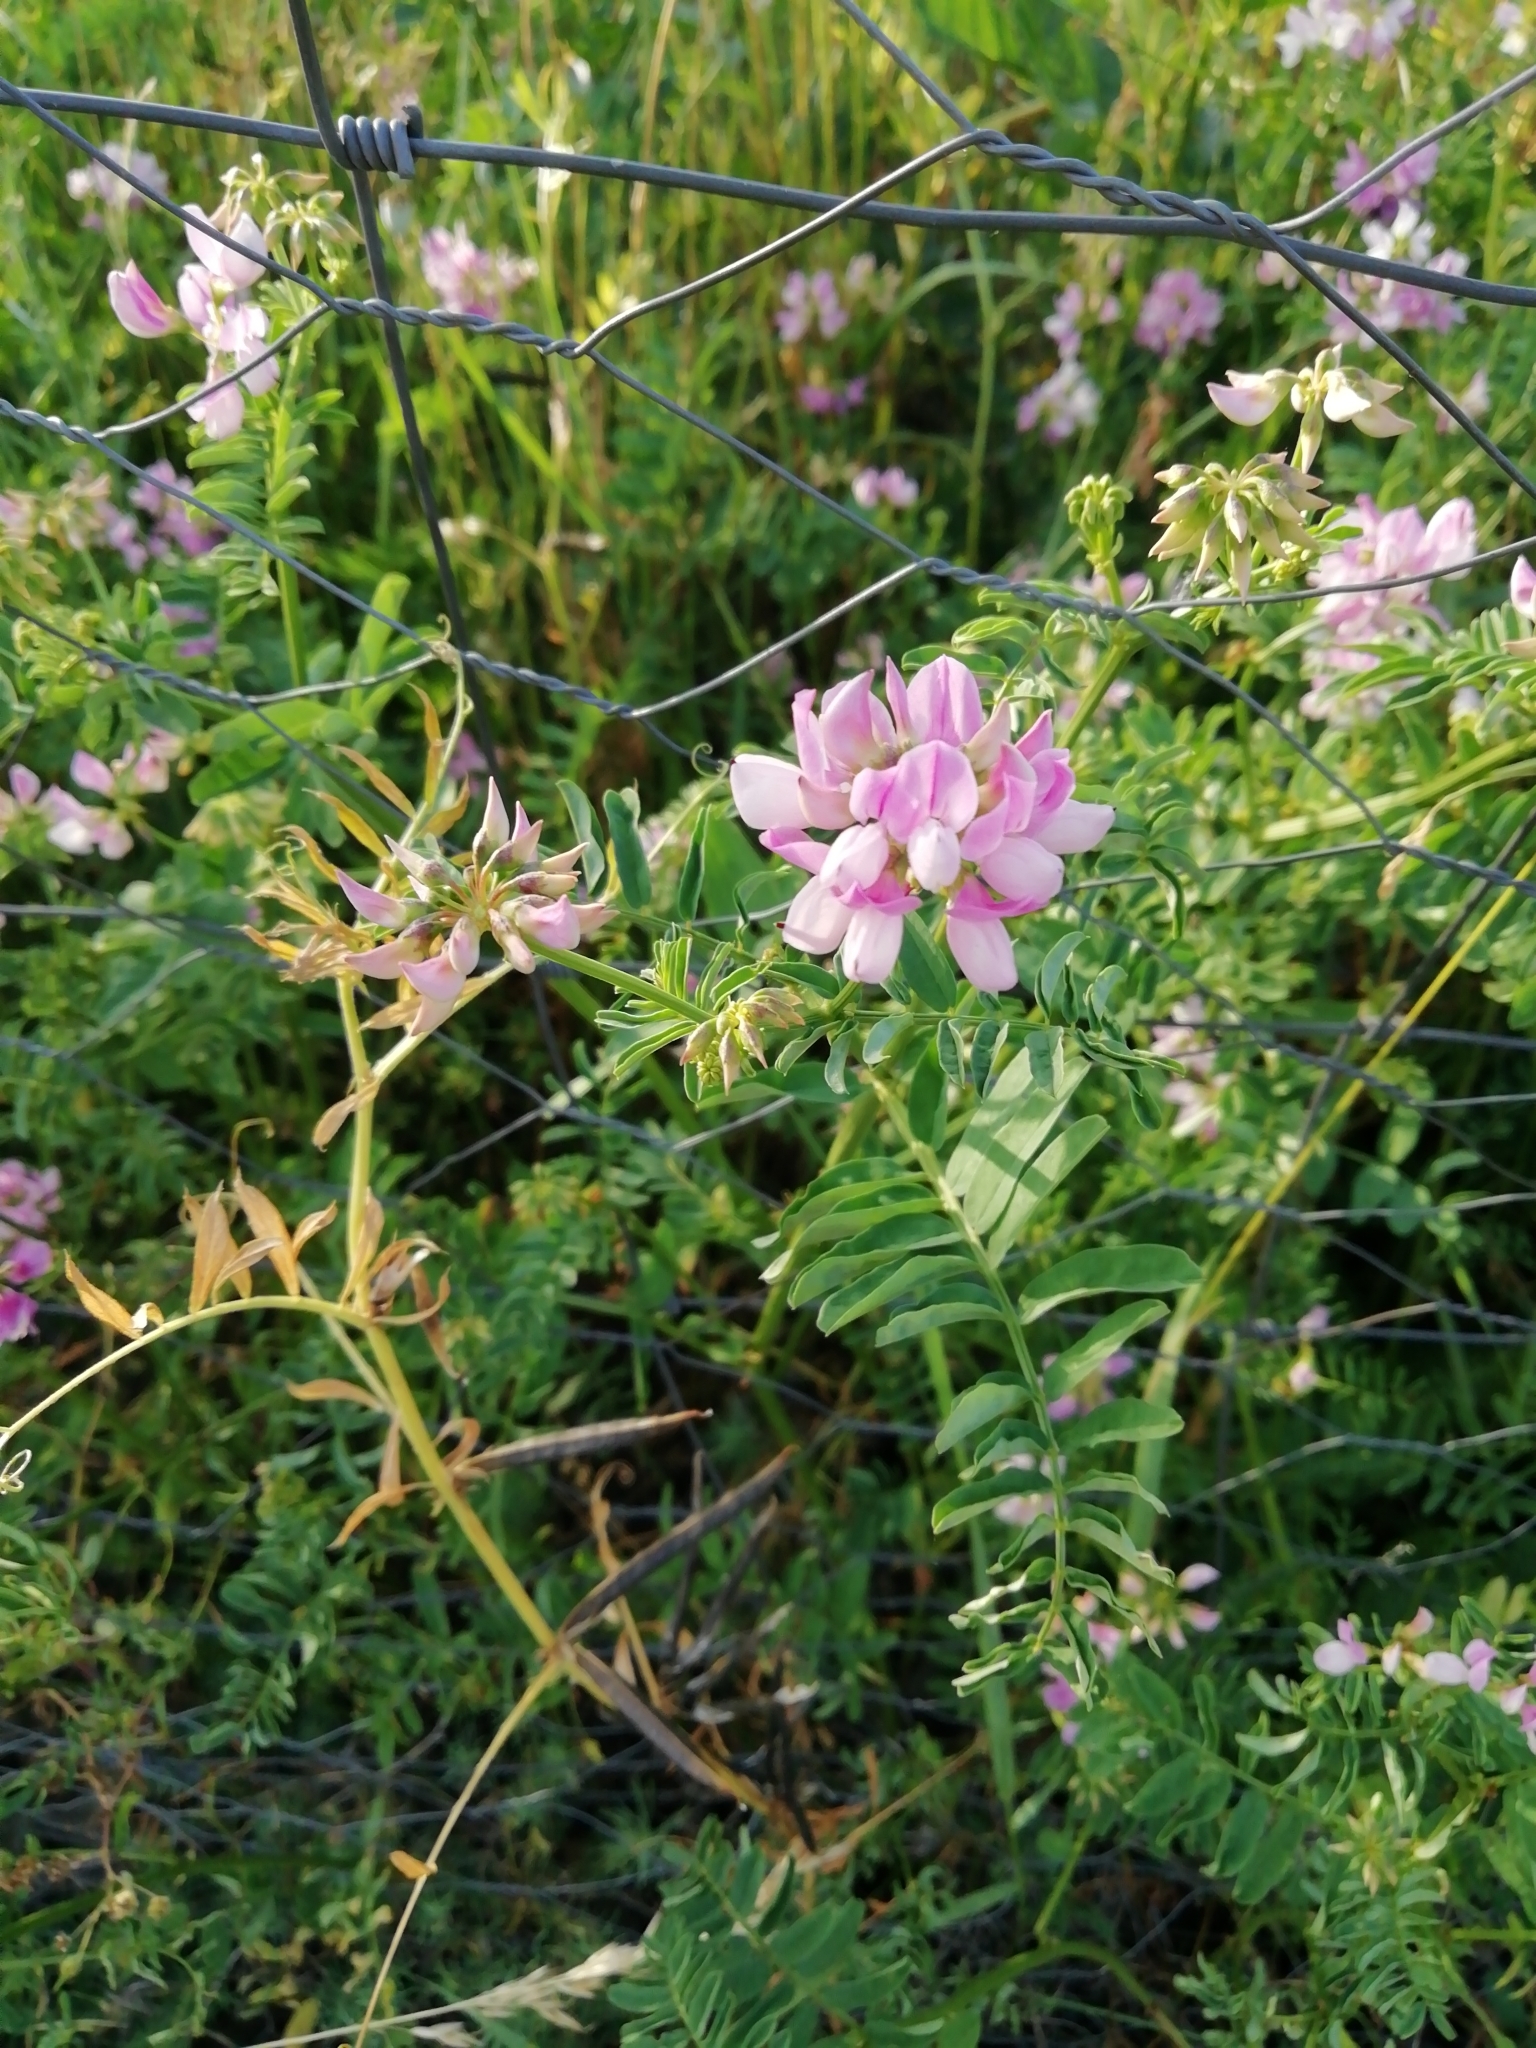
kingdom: Plantae
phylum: Tracheophyta
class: Magnoliopsida
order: Fabales
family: Fabaceae
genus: Coronilla
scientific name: Coronilla varia
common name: Crownvetch
